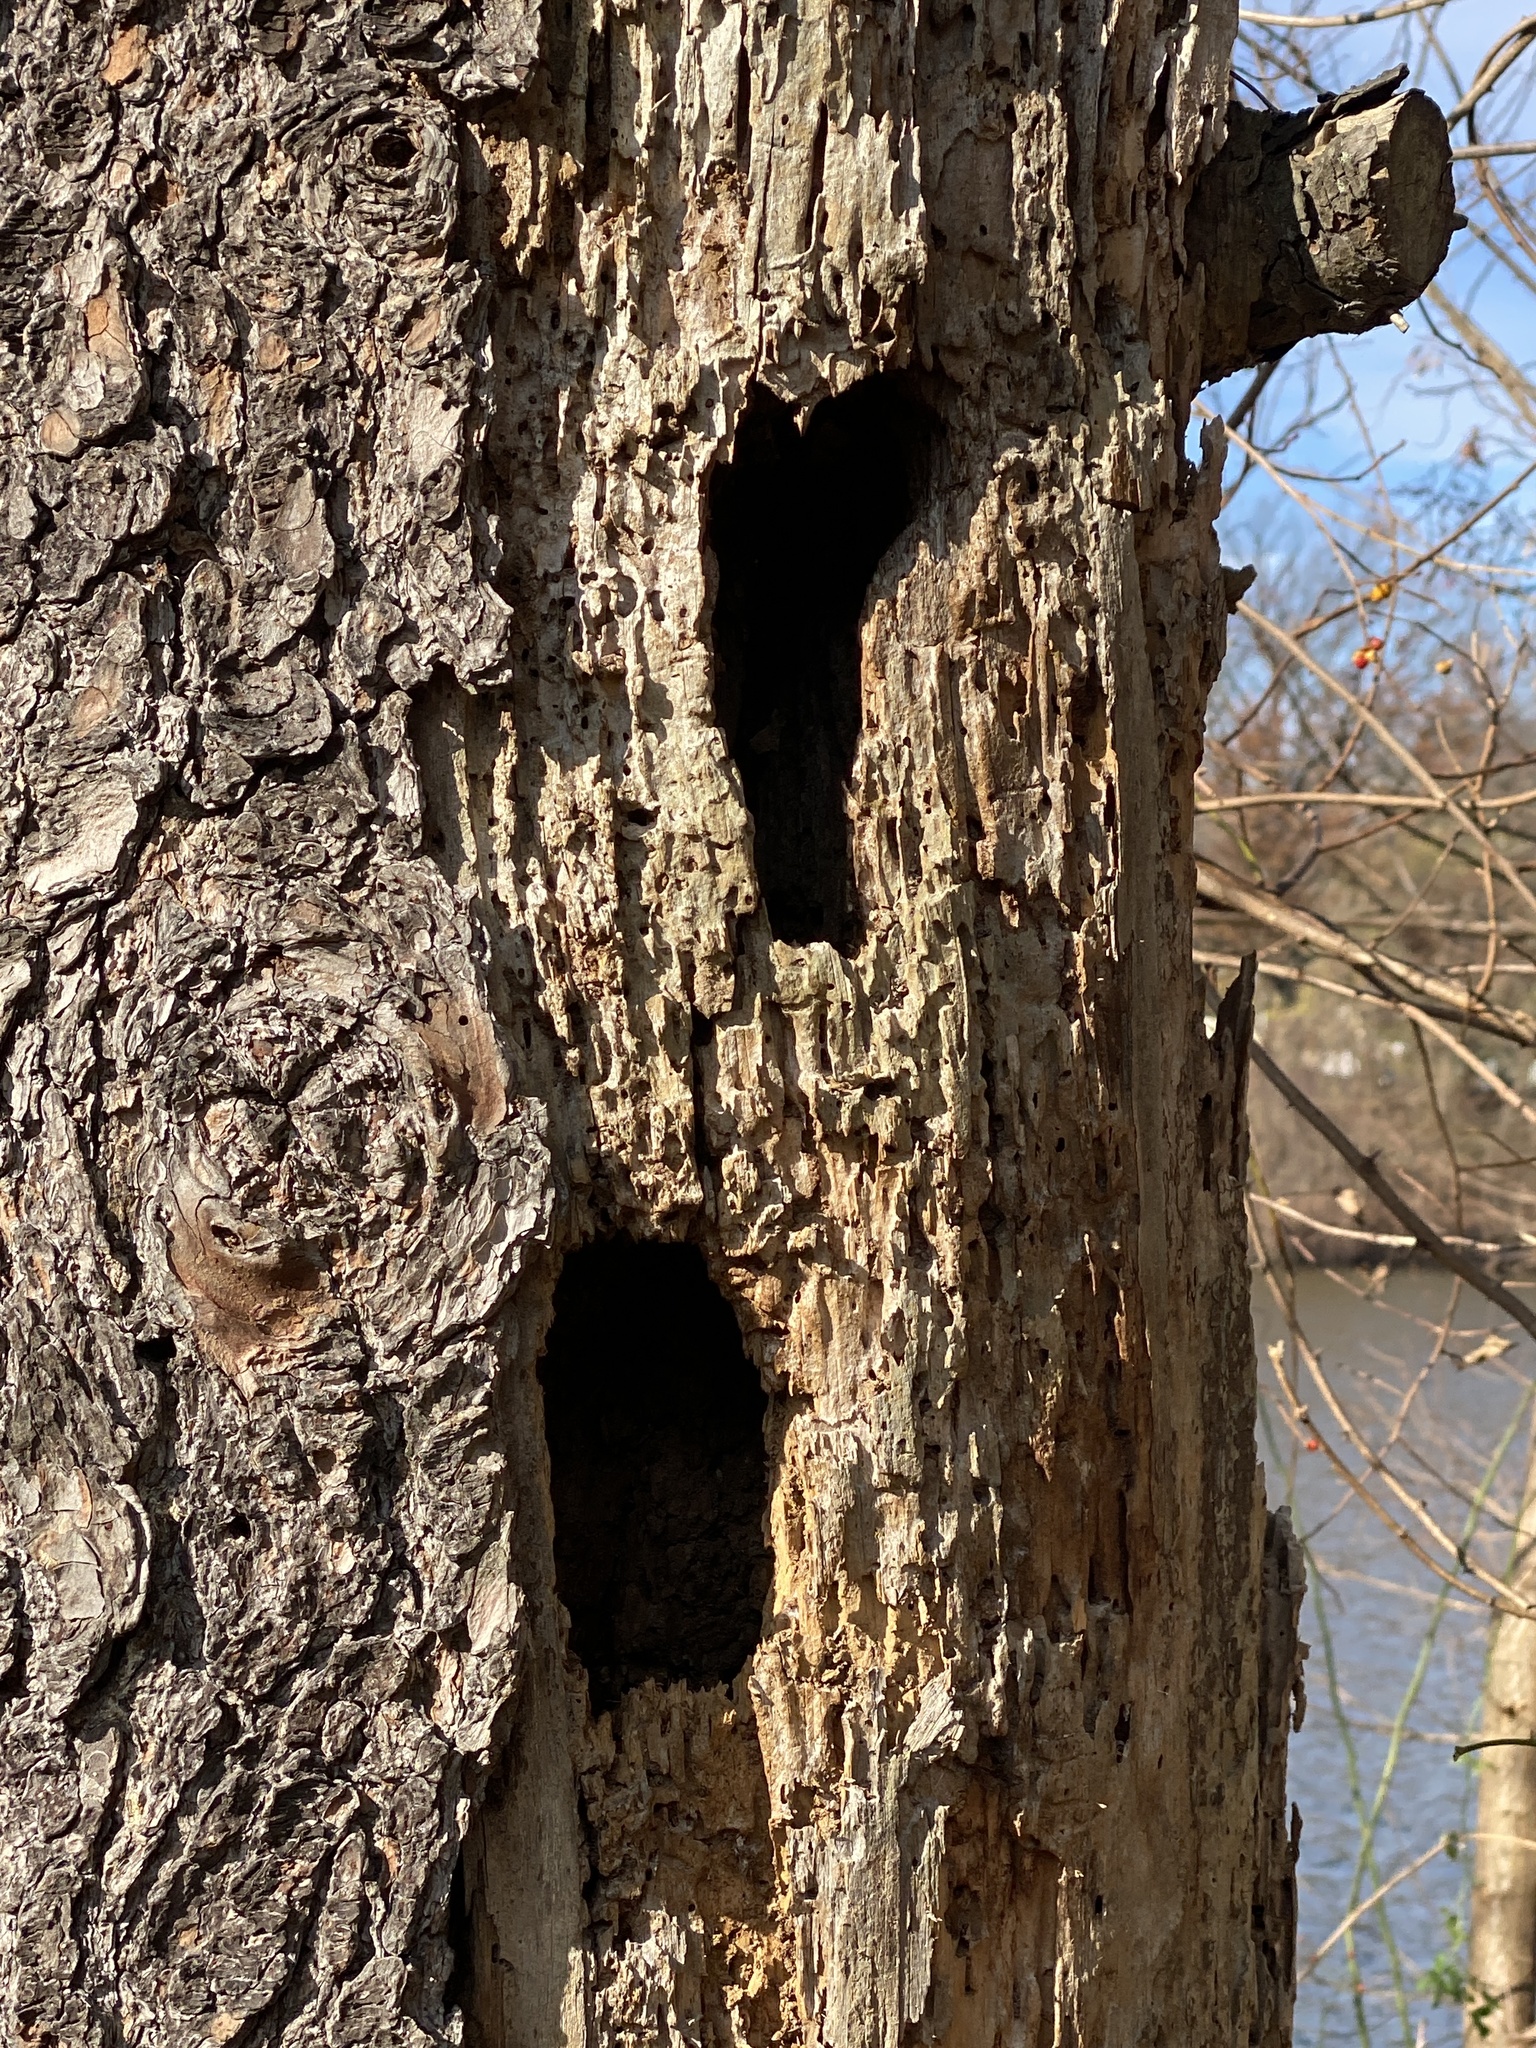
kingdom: Animalia
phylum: Chordata
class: Aves
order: Piciformes
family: Picidae
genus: Dryocopus
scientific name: Dryocopus pileatus
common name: Pileated woodpecker
